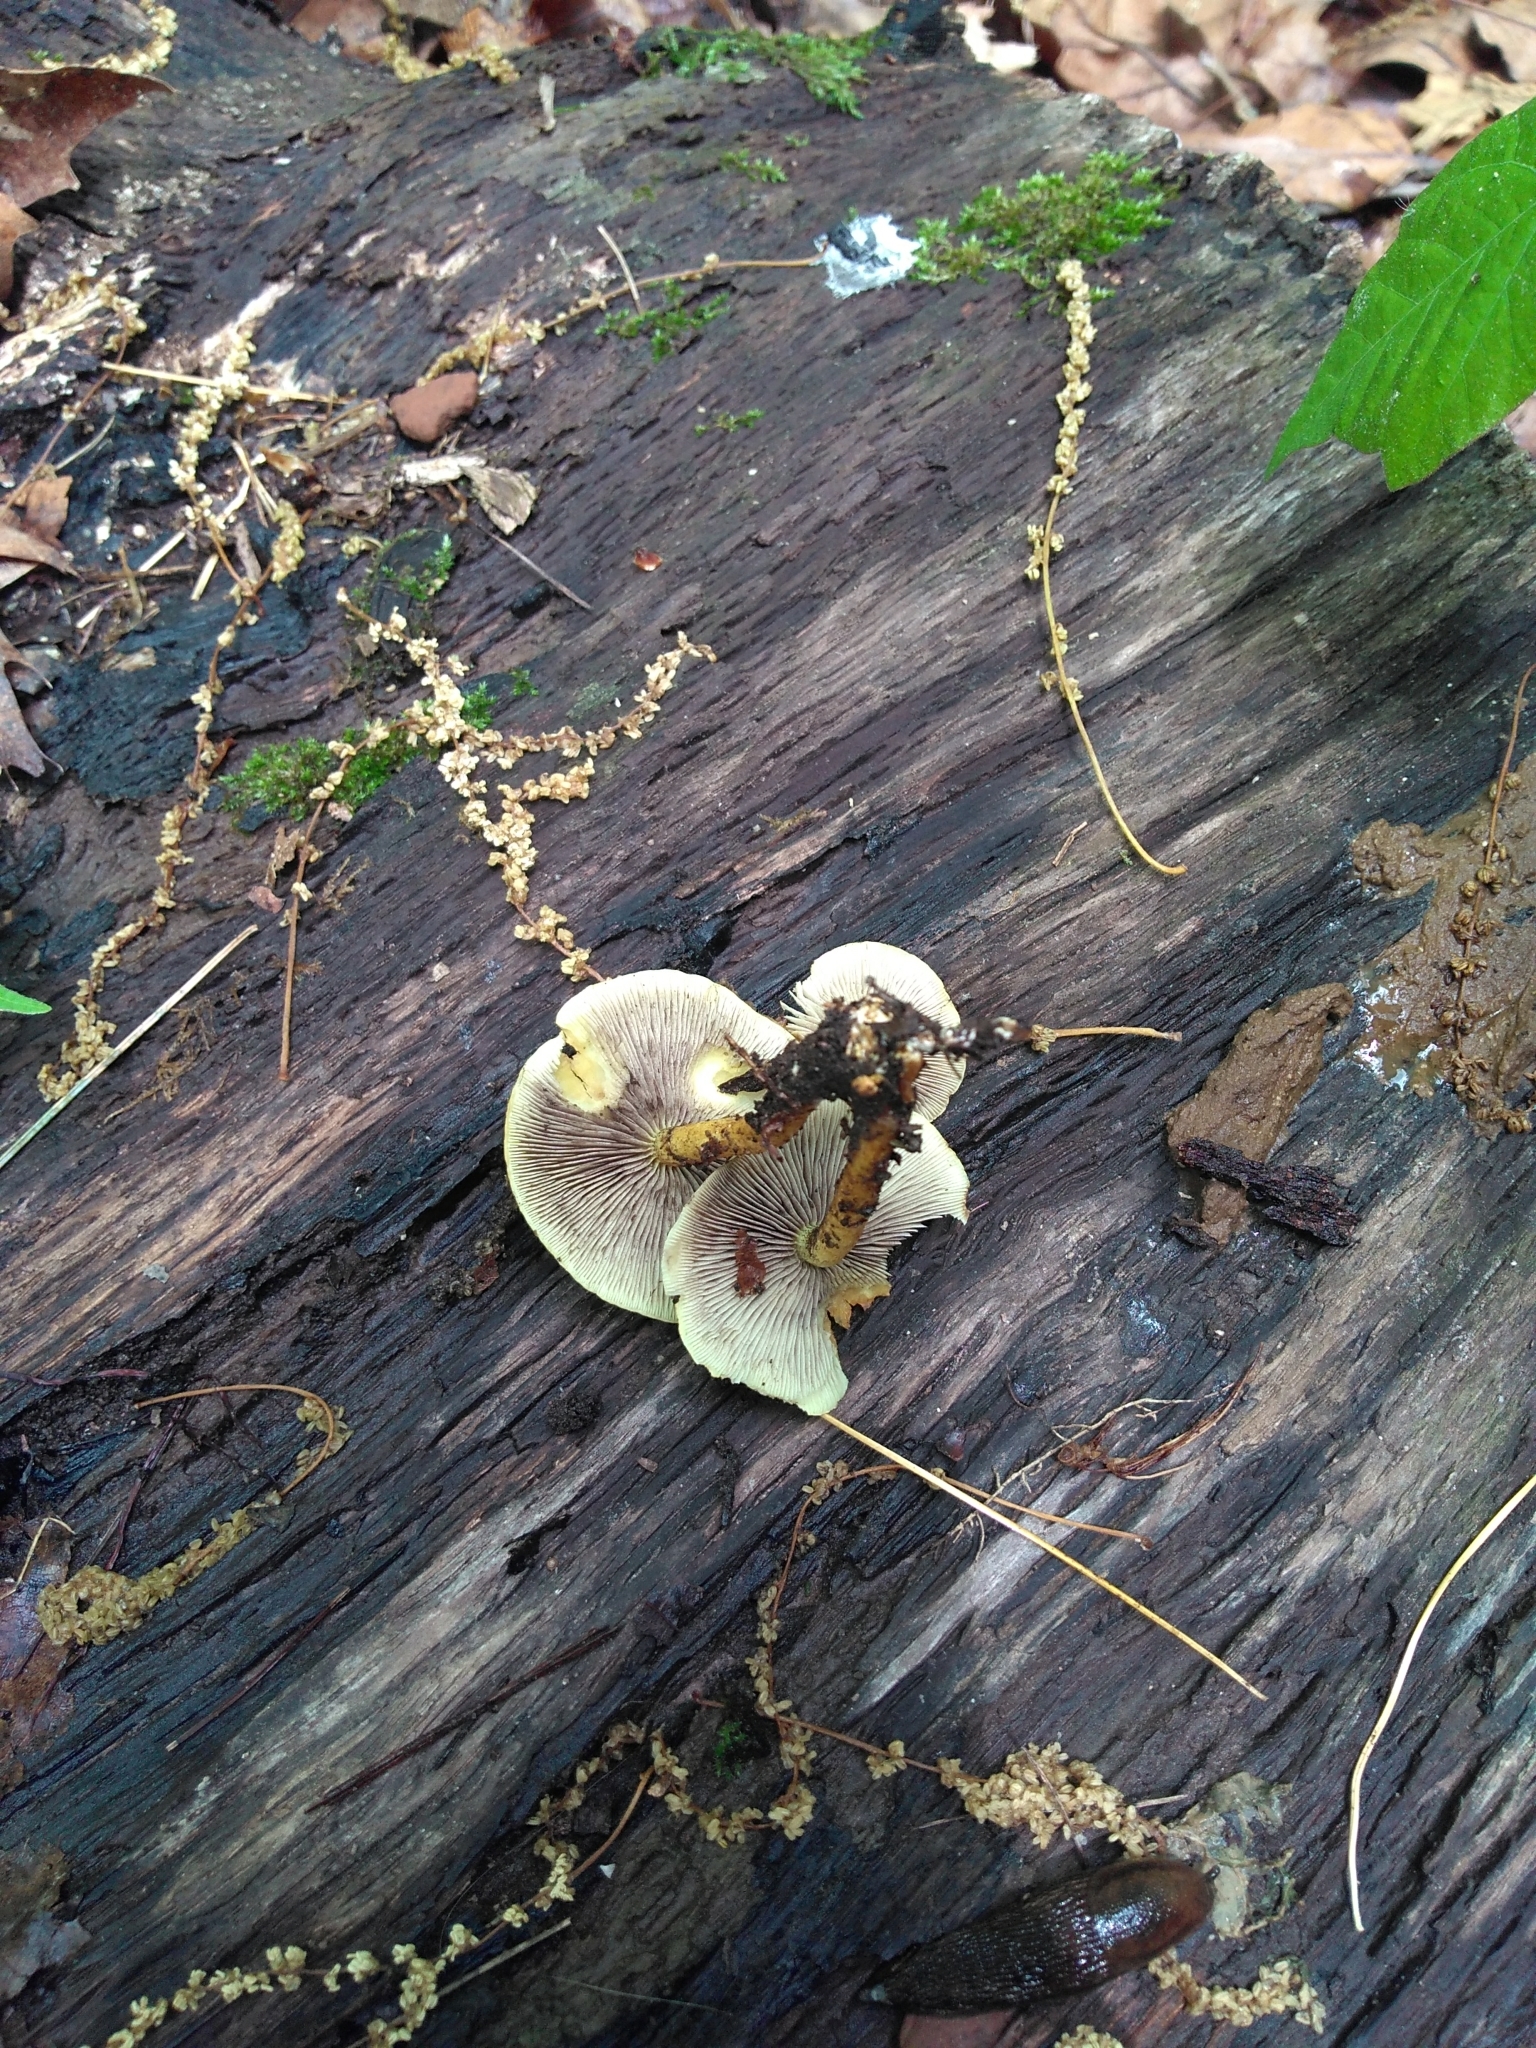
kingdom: Fungi
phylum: Basidiomycota
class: Agaricomycetes
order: Agaricales
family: Strophariaceae
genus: Hypholoma
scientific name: Hypholoma fasciculare
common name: Sulphur tuft
